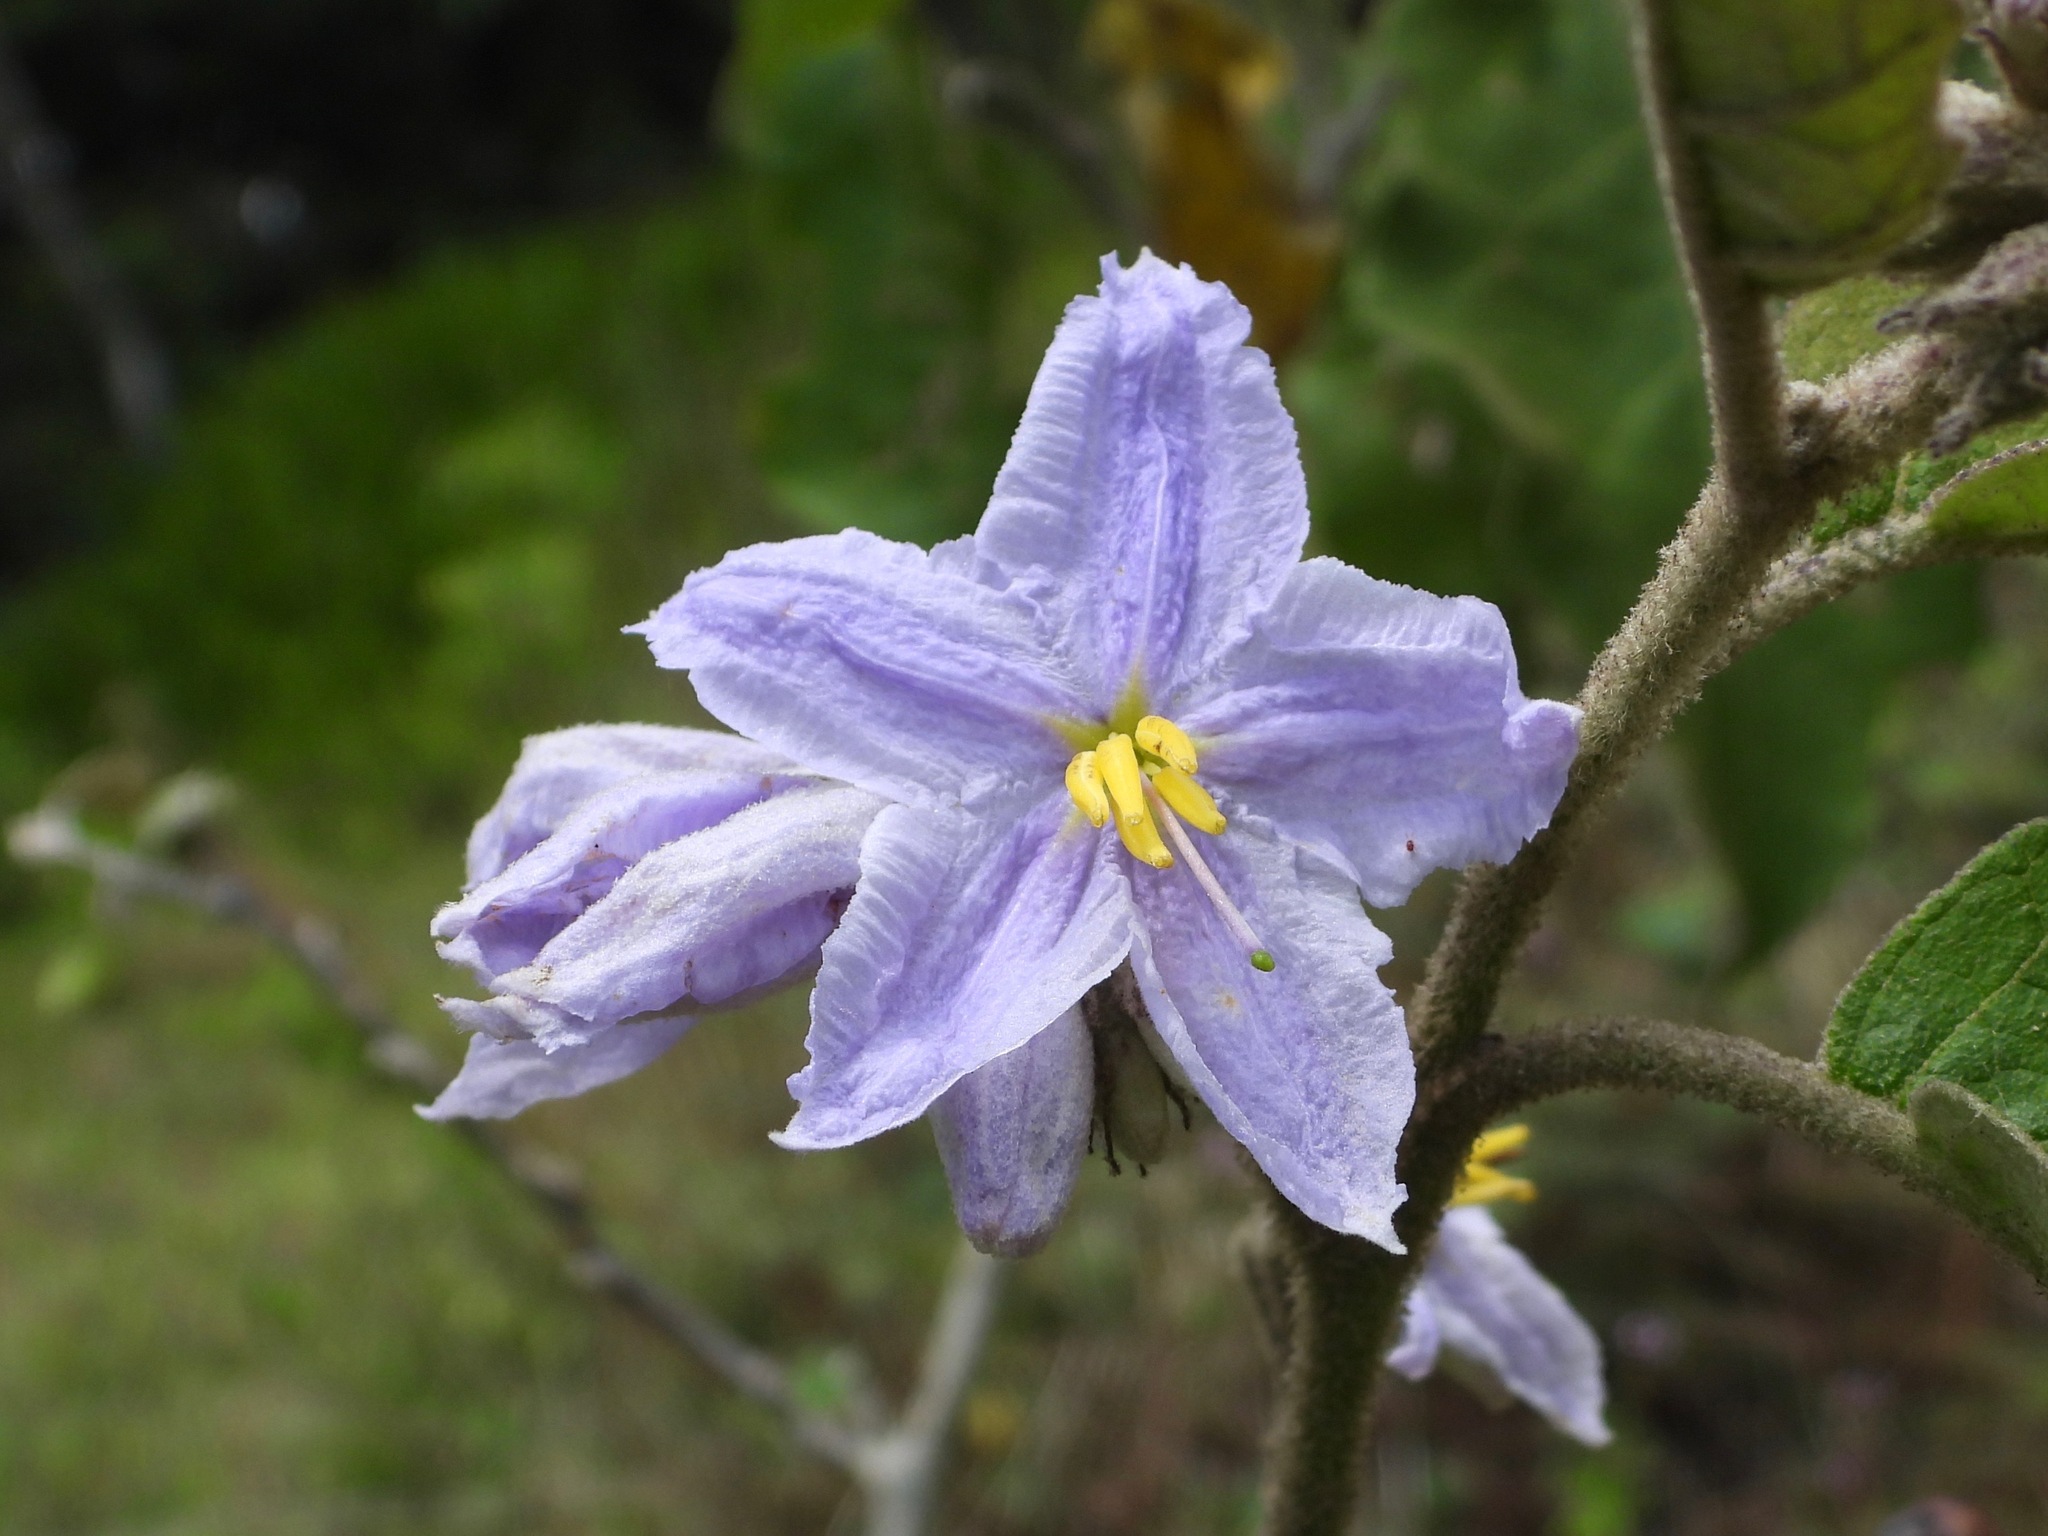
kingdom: Plantae
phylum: Tracheophyta
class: Magnoliopsida
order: Solanales
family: Solanaceae
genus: Solanum
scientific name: Solanum lanceolatum
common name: Orangeberry nightshade
